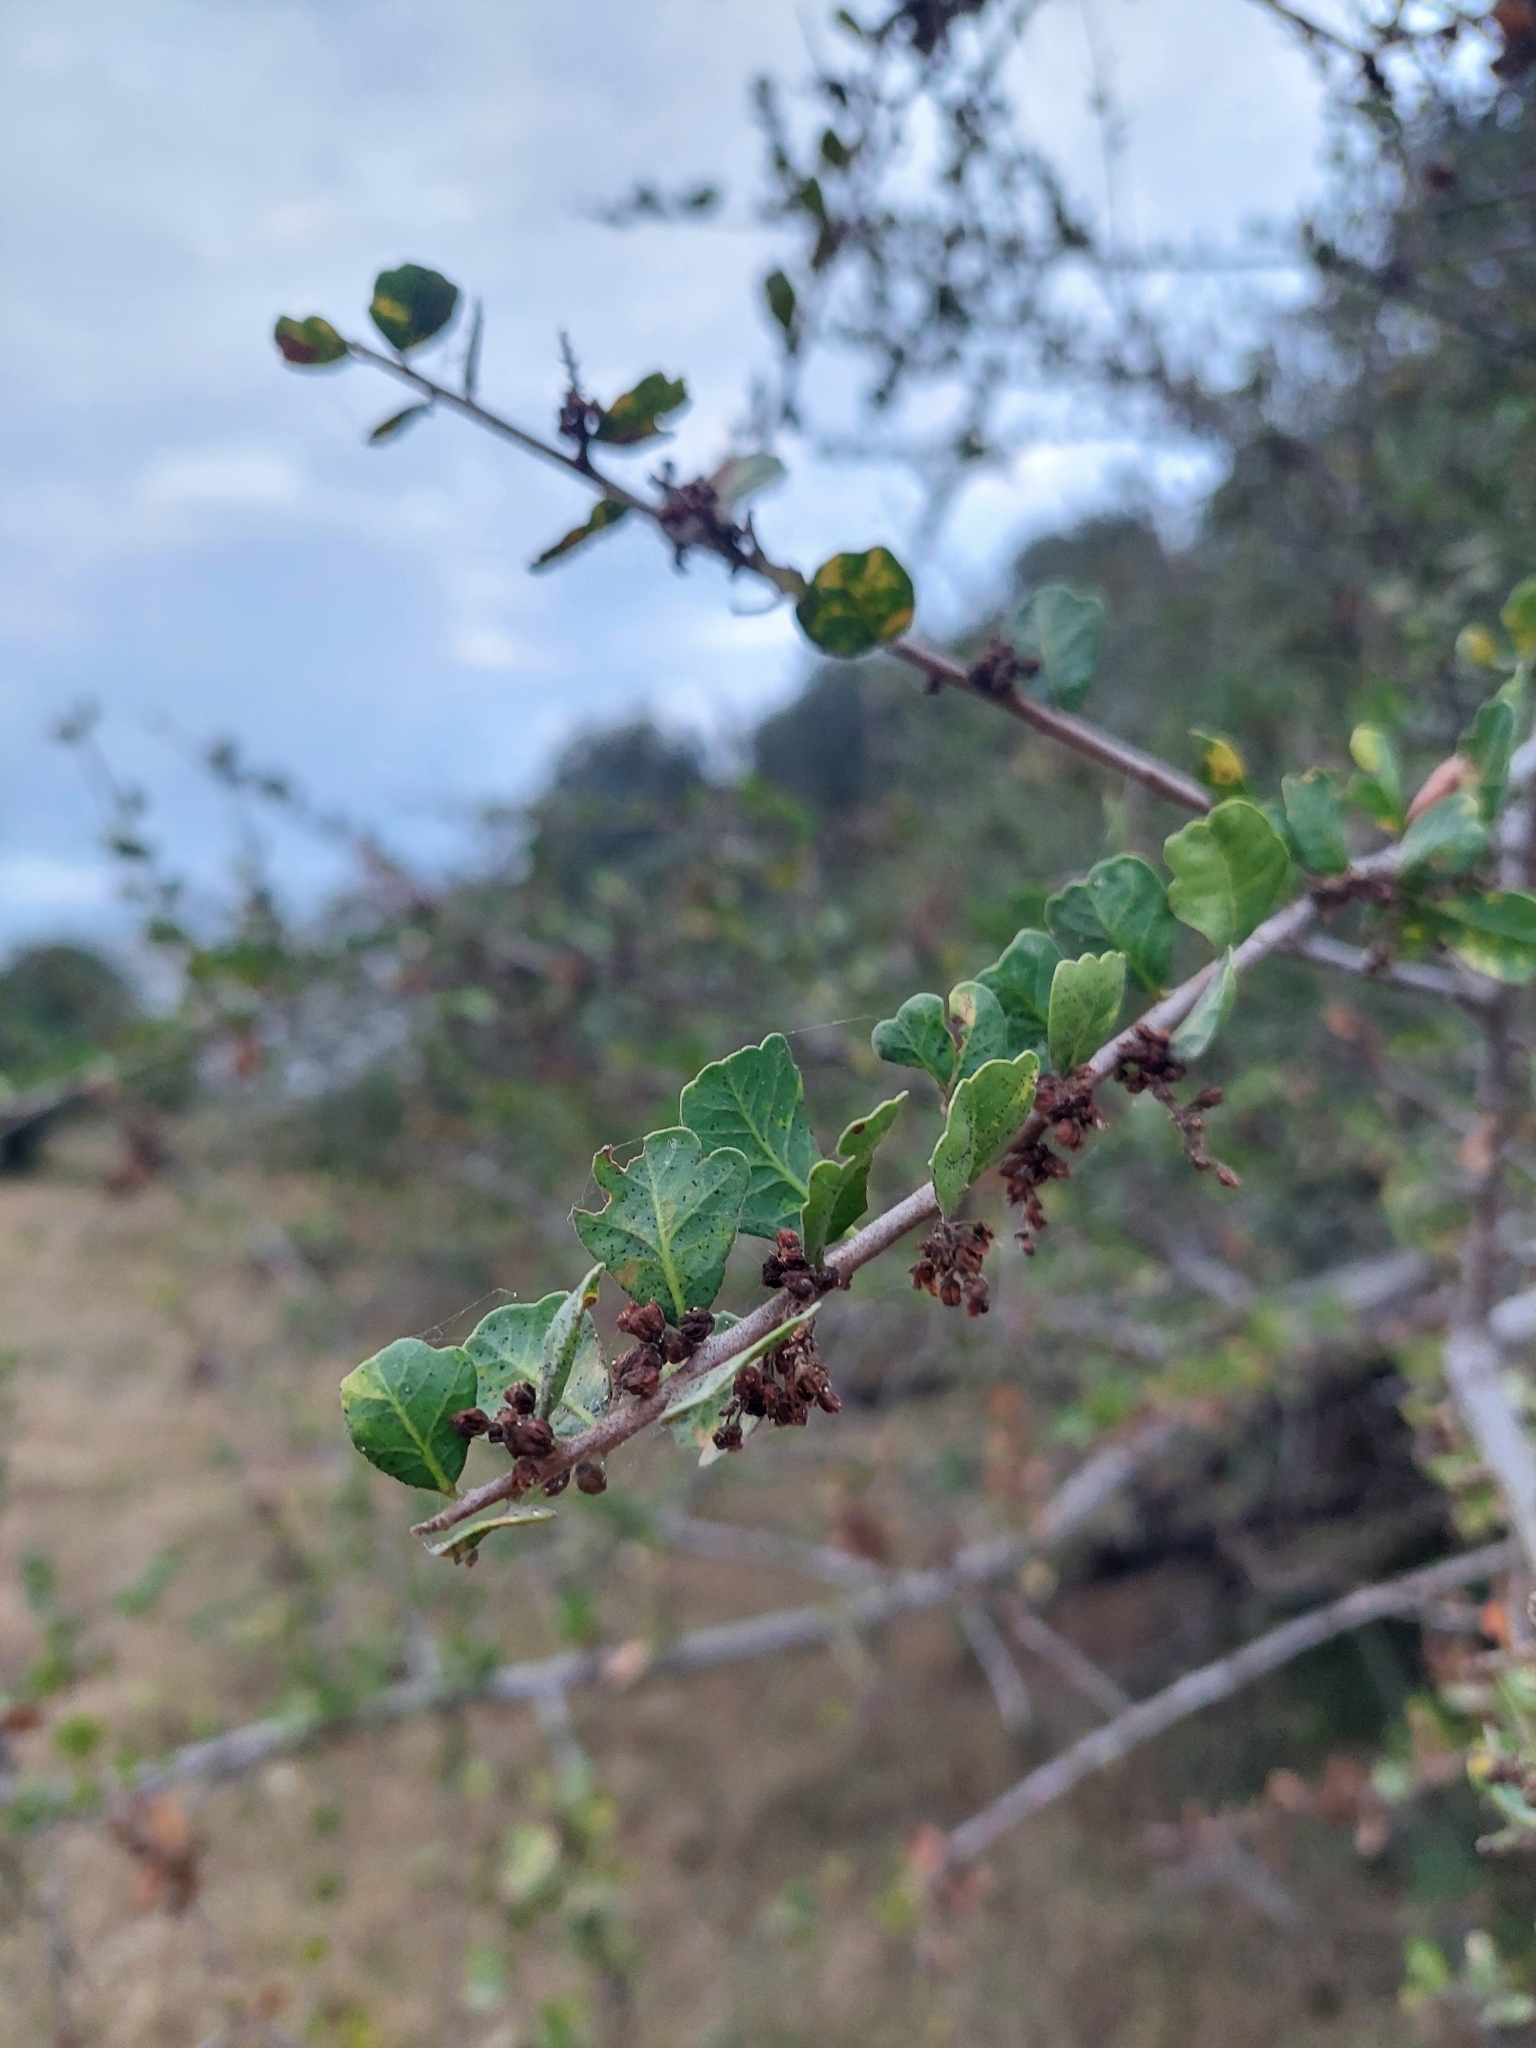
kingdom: Plantae
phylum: Tracheophyta
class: Magnoliopsida
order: Sapindales
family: Anacardiaceae
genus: Schinus
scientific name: Schinus fasciculata
